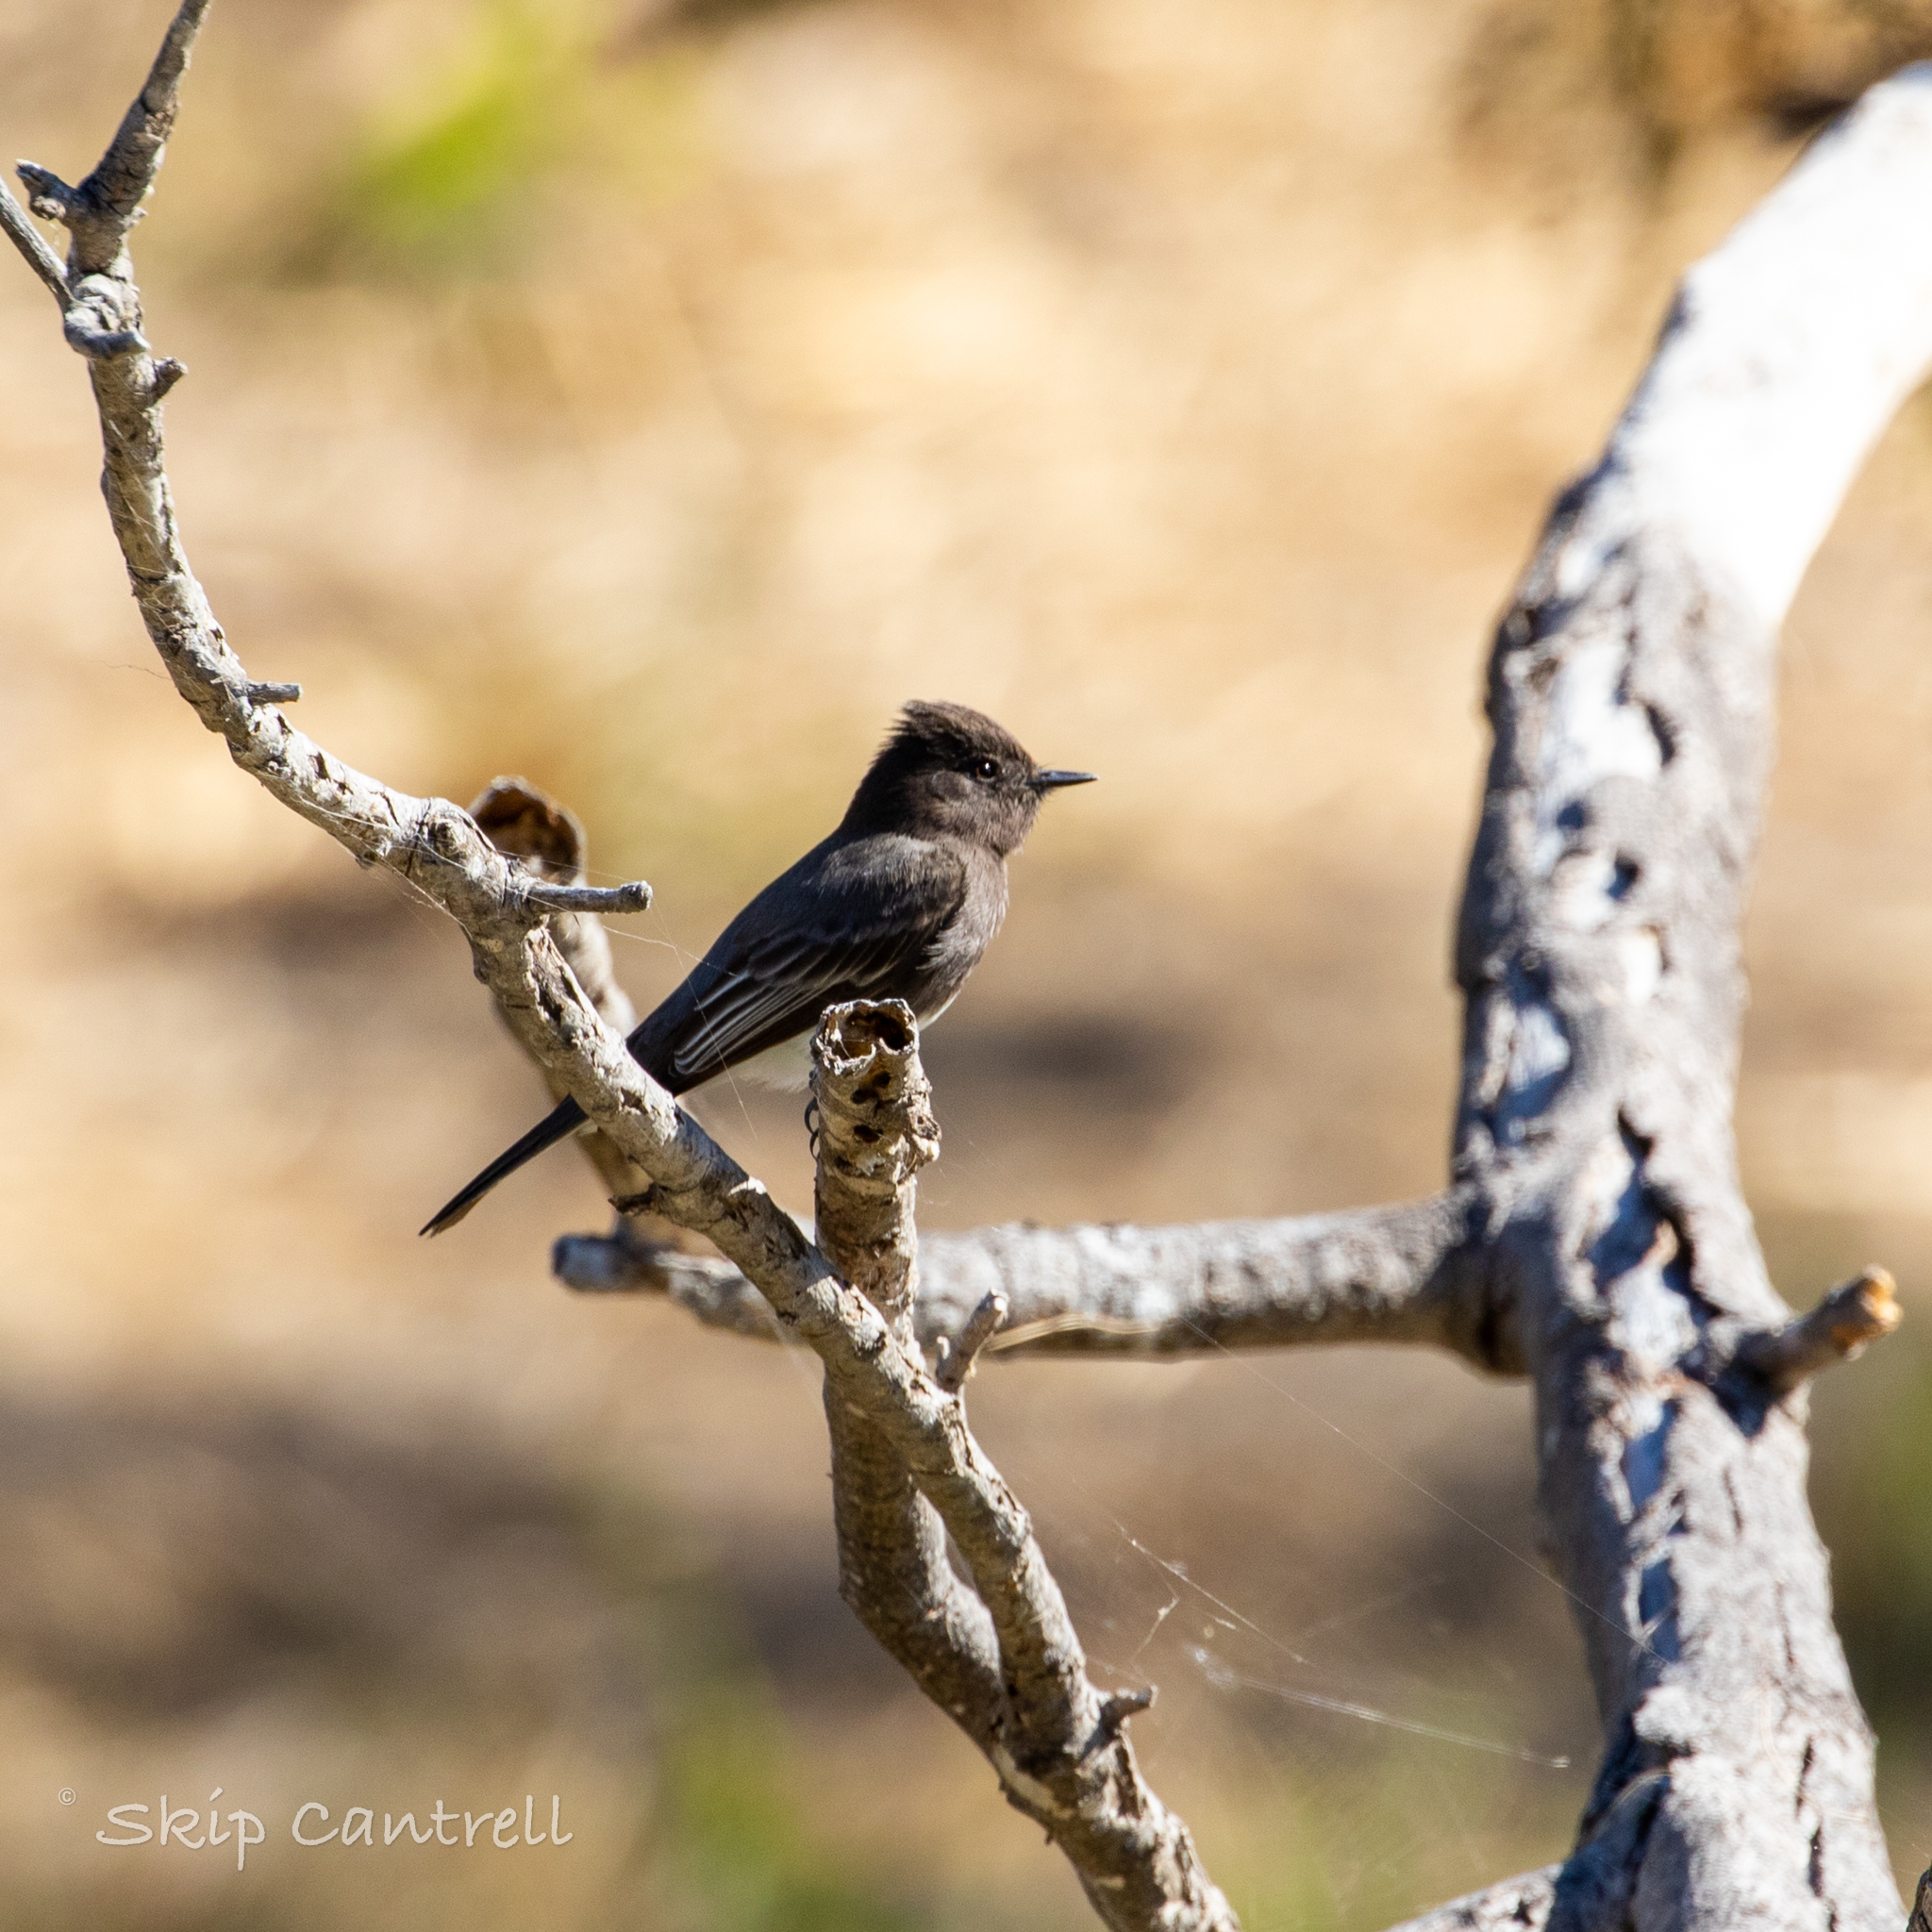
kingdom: Animalia
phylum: Chordata
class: Aves
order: Passeriformes
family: Tyrannidae
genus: Sayornis
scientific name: Sayornis nigricans
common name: Black phoebe
